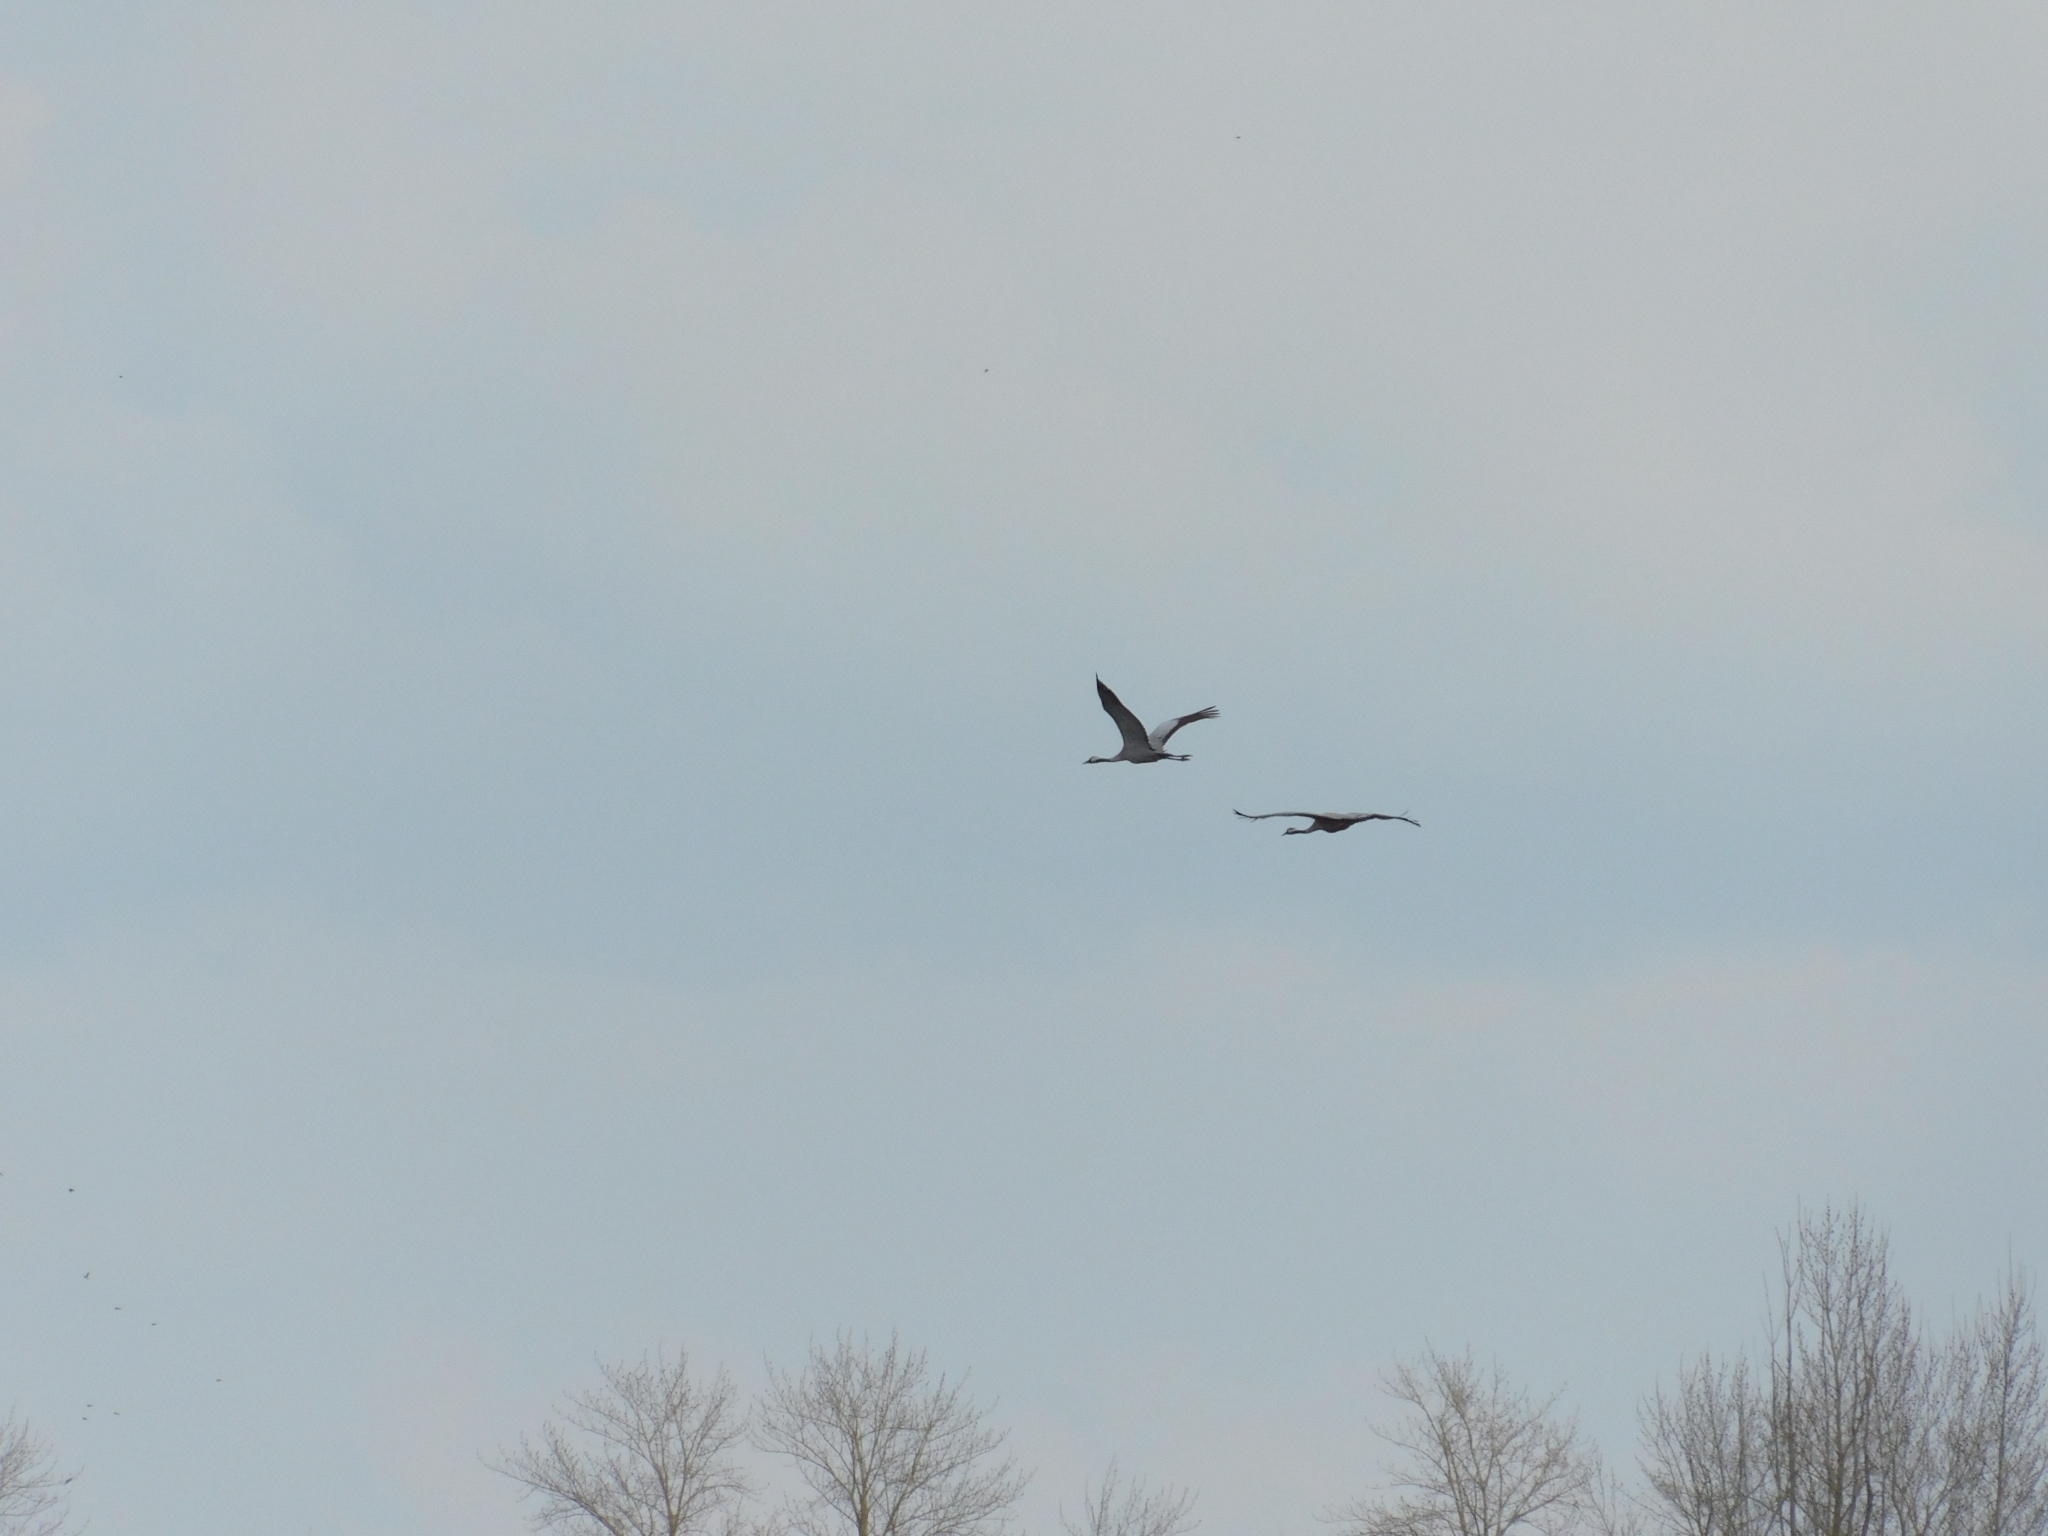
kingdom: Animalia
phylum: Chordata
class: Aves
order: Gruiformes
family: Gruidae
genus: Grus
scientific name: Grus grus
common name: Common crane
